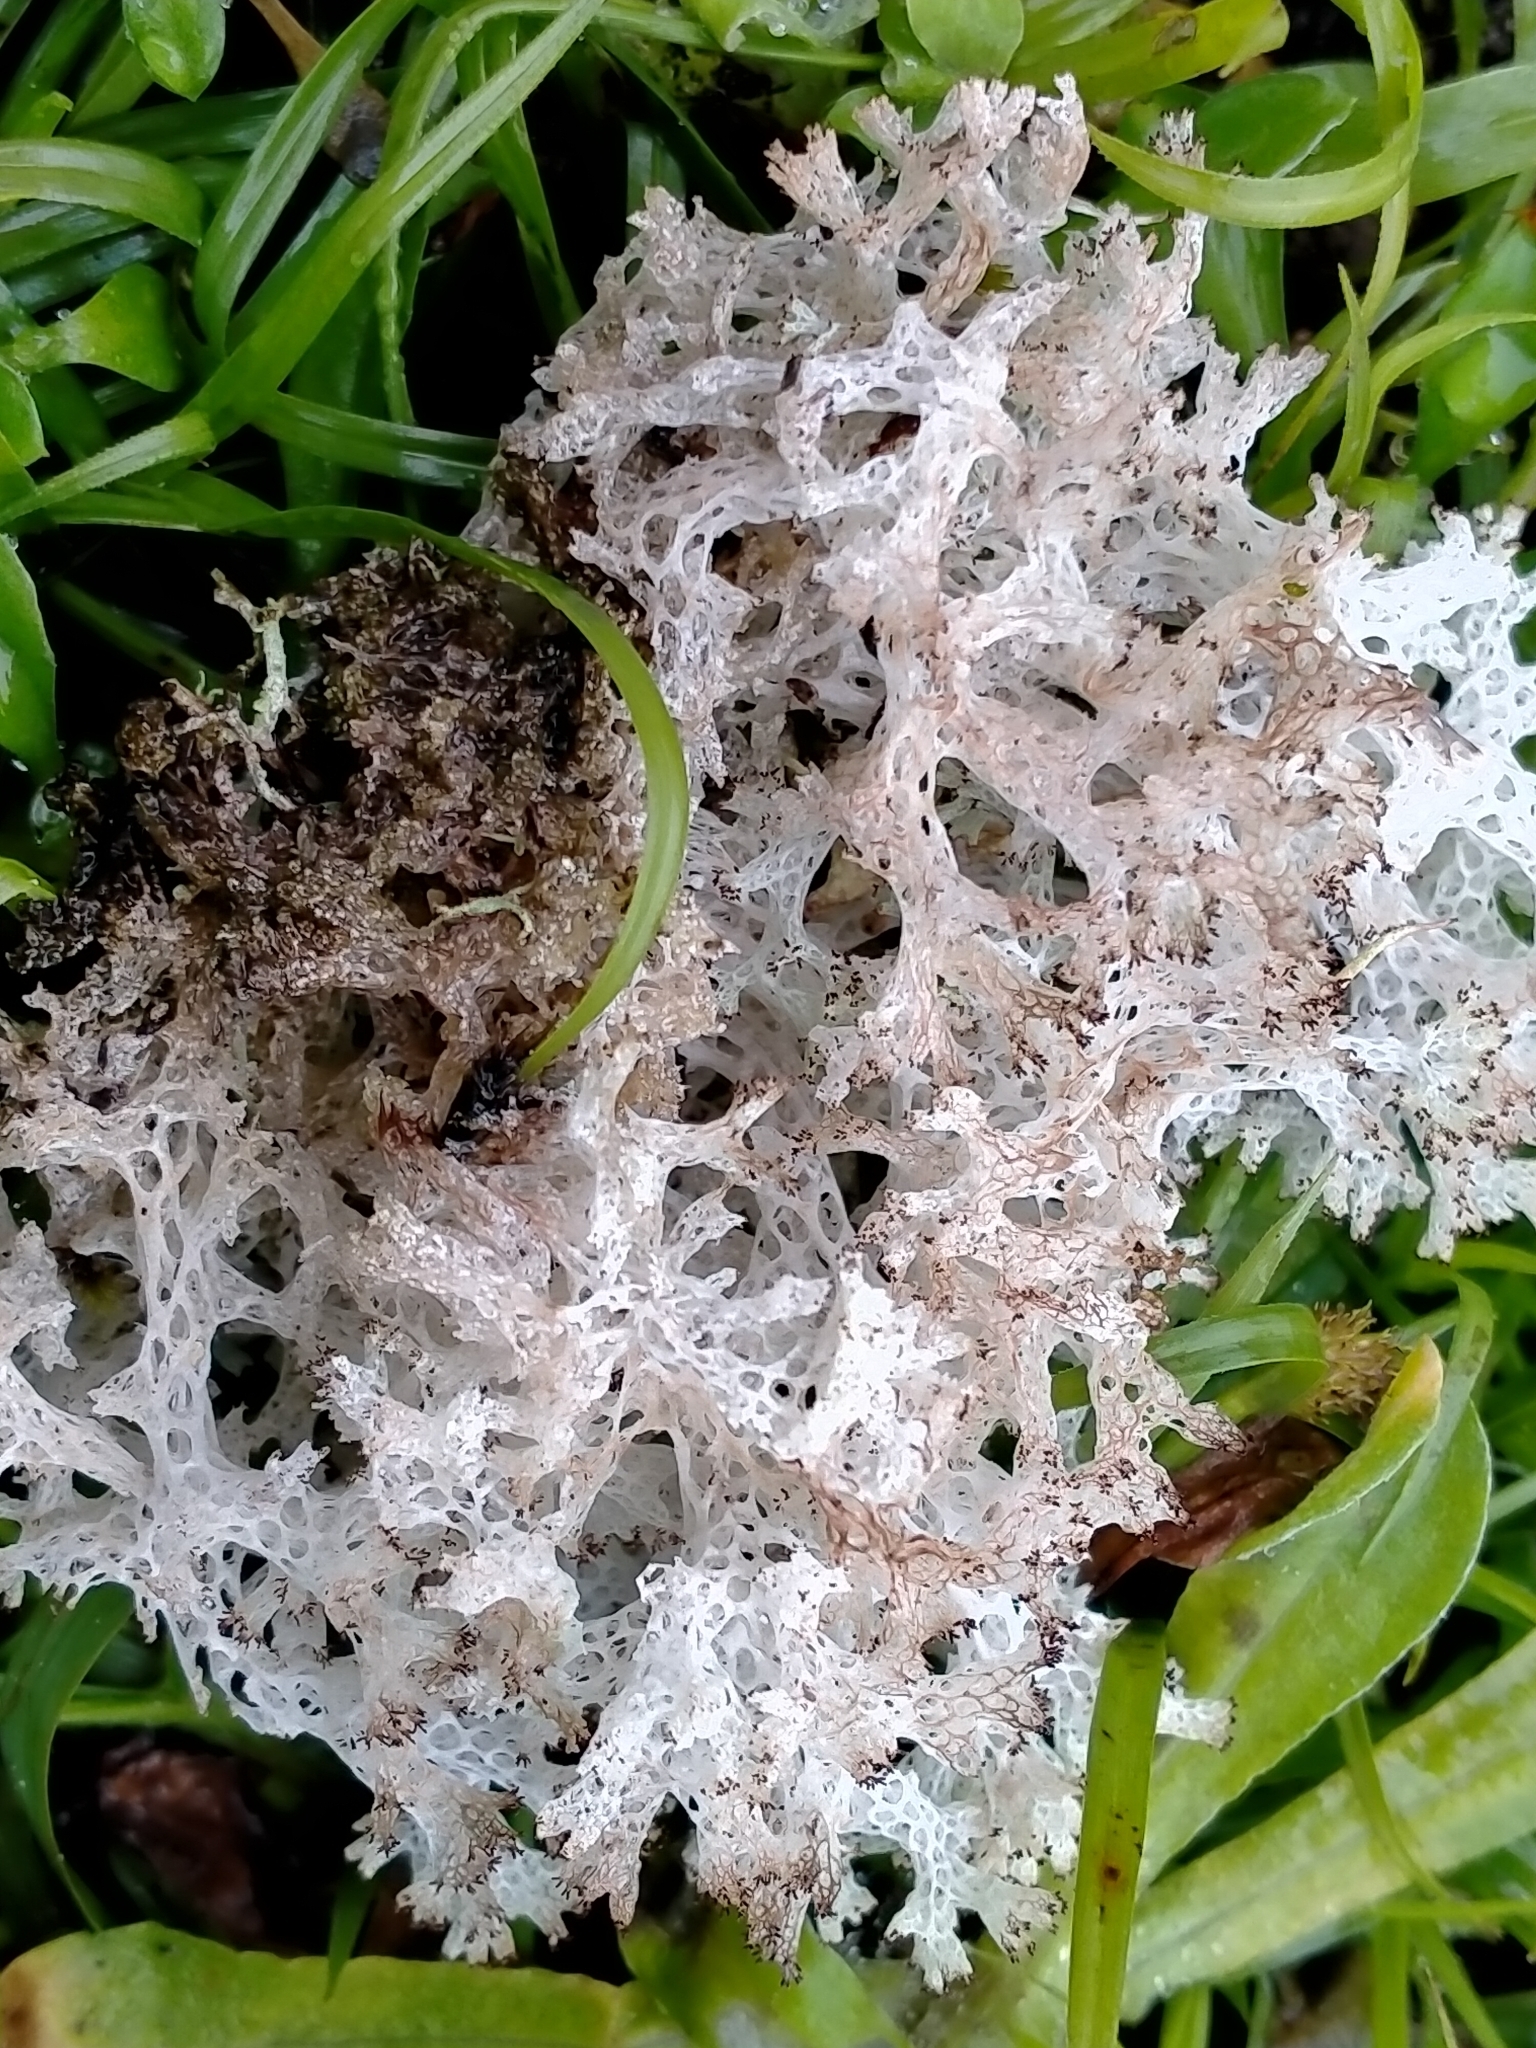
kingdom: Fungi
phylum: Ascomycota
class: Lecanoromycetes
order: Lecanorales
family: Cladoniaceae
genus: Pulchrocladia
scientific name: Pulchrocladia retipora
